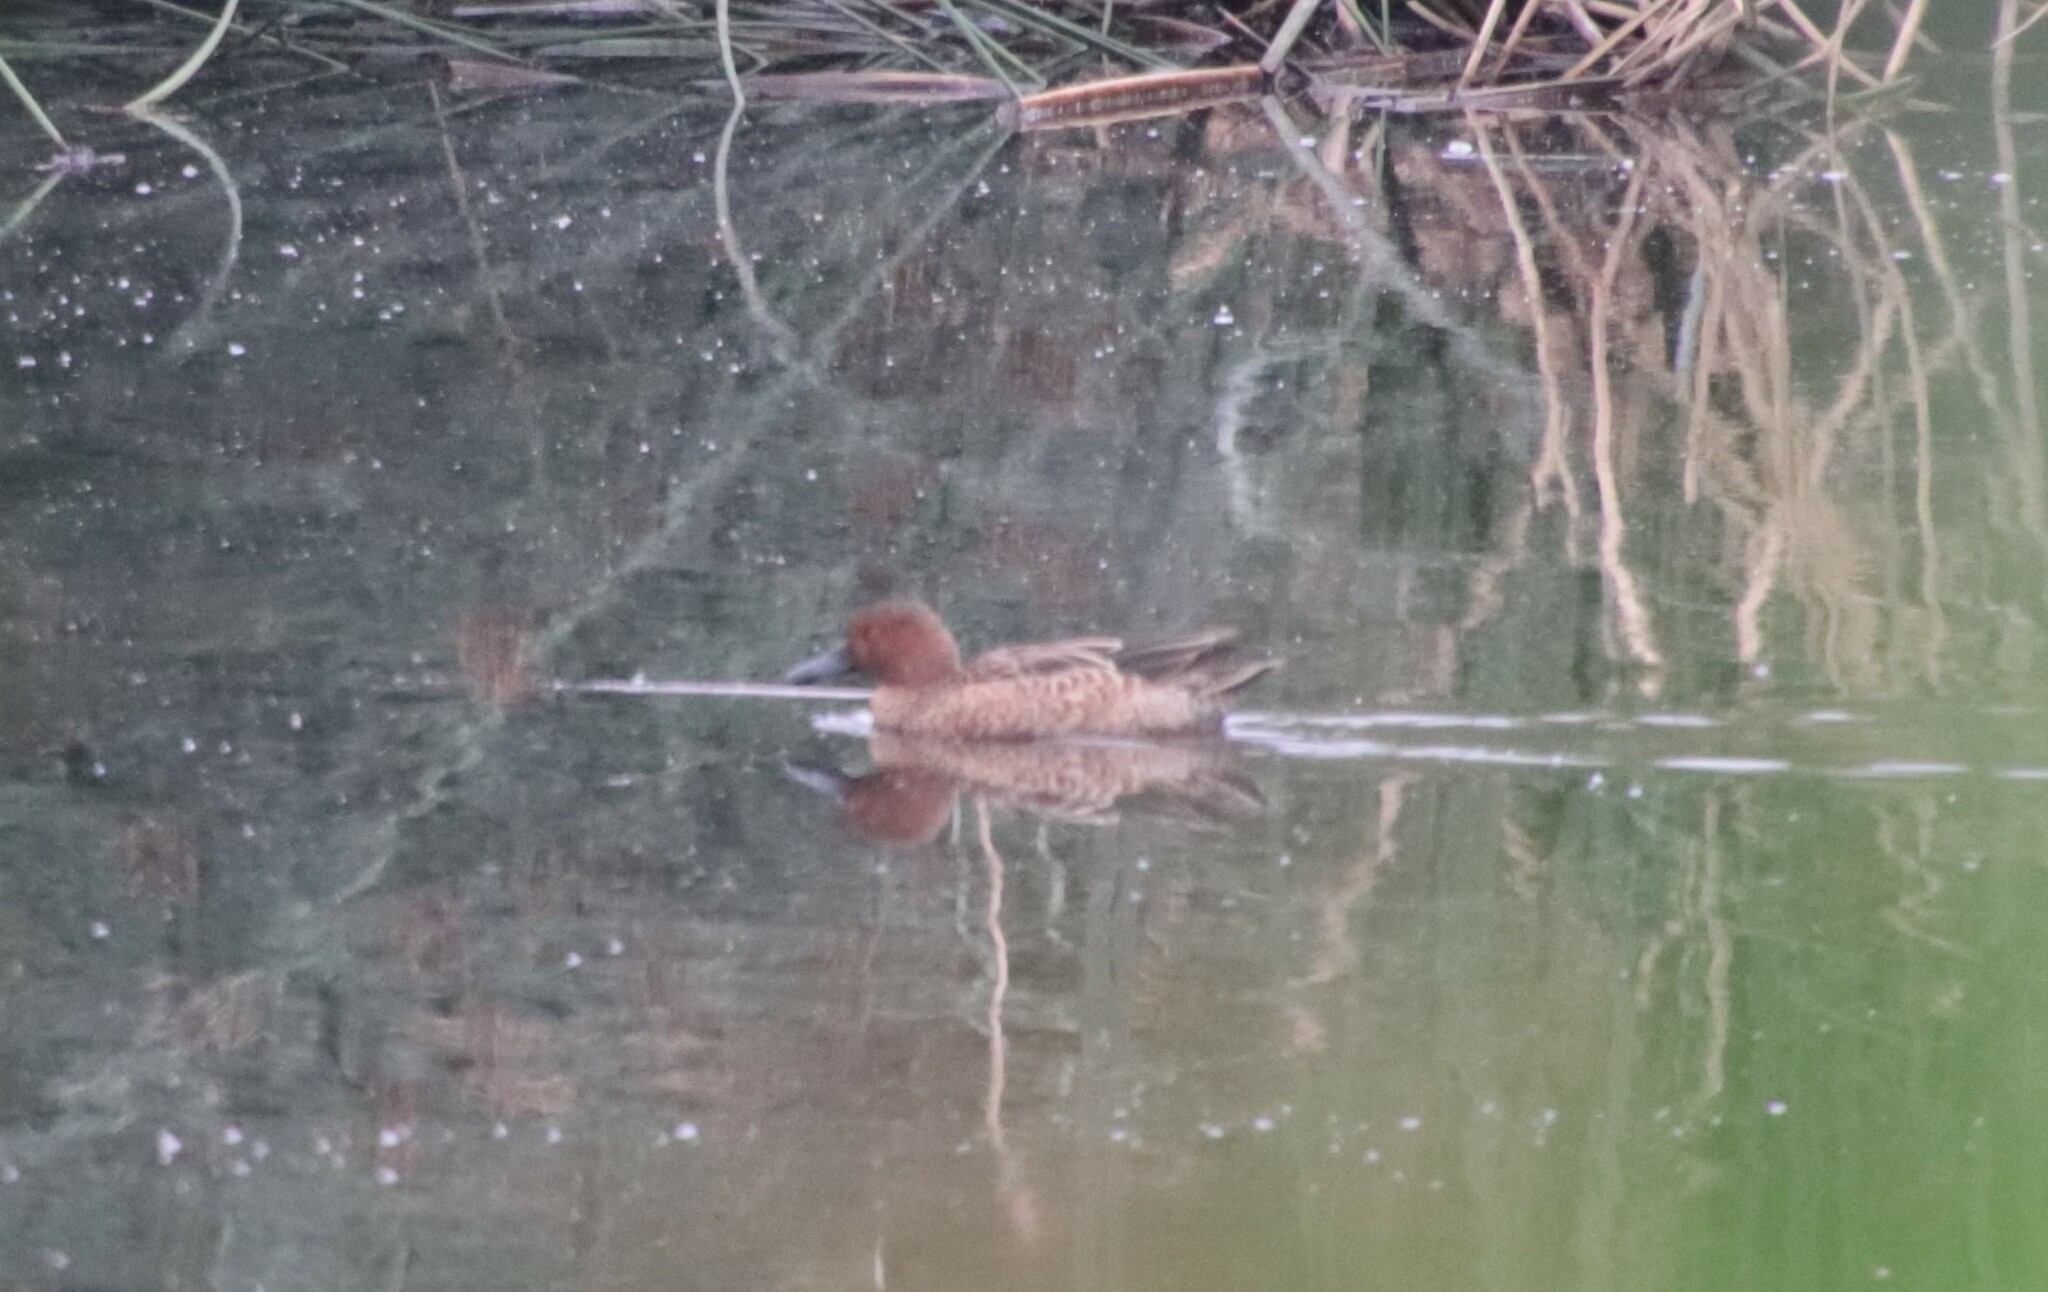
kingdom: Animalia
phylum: Chordata
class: Aves
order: Anseriformes
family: Anatidae
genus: Spatula
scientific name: Spatula cyanoptera
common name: Cinnamon teal
